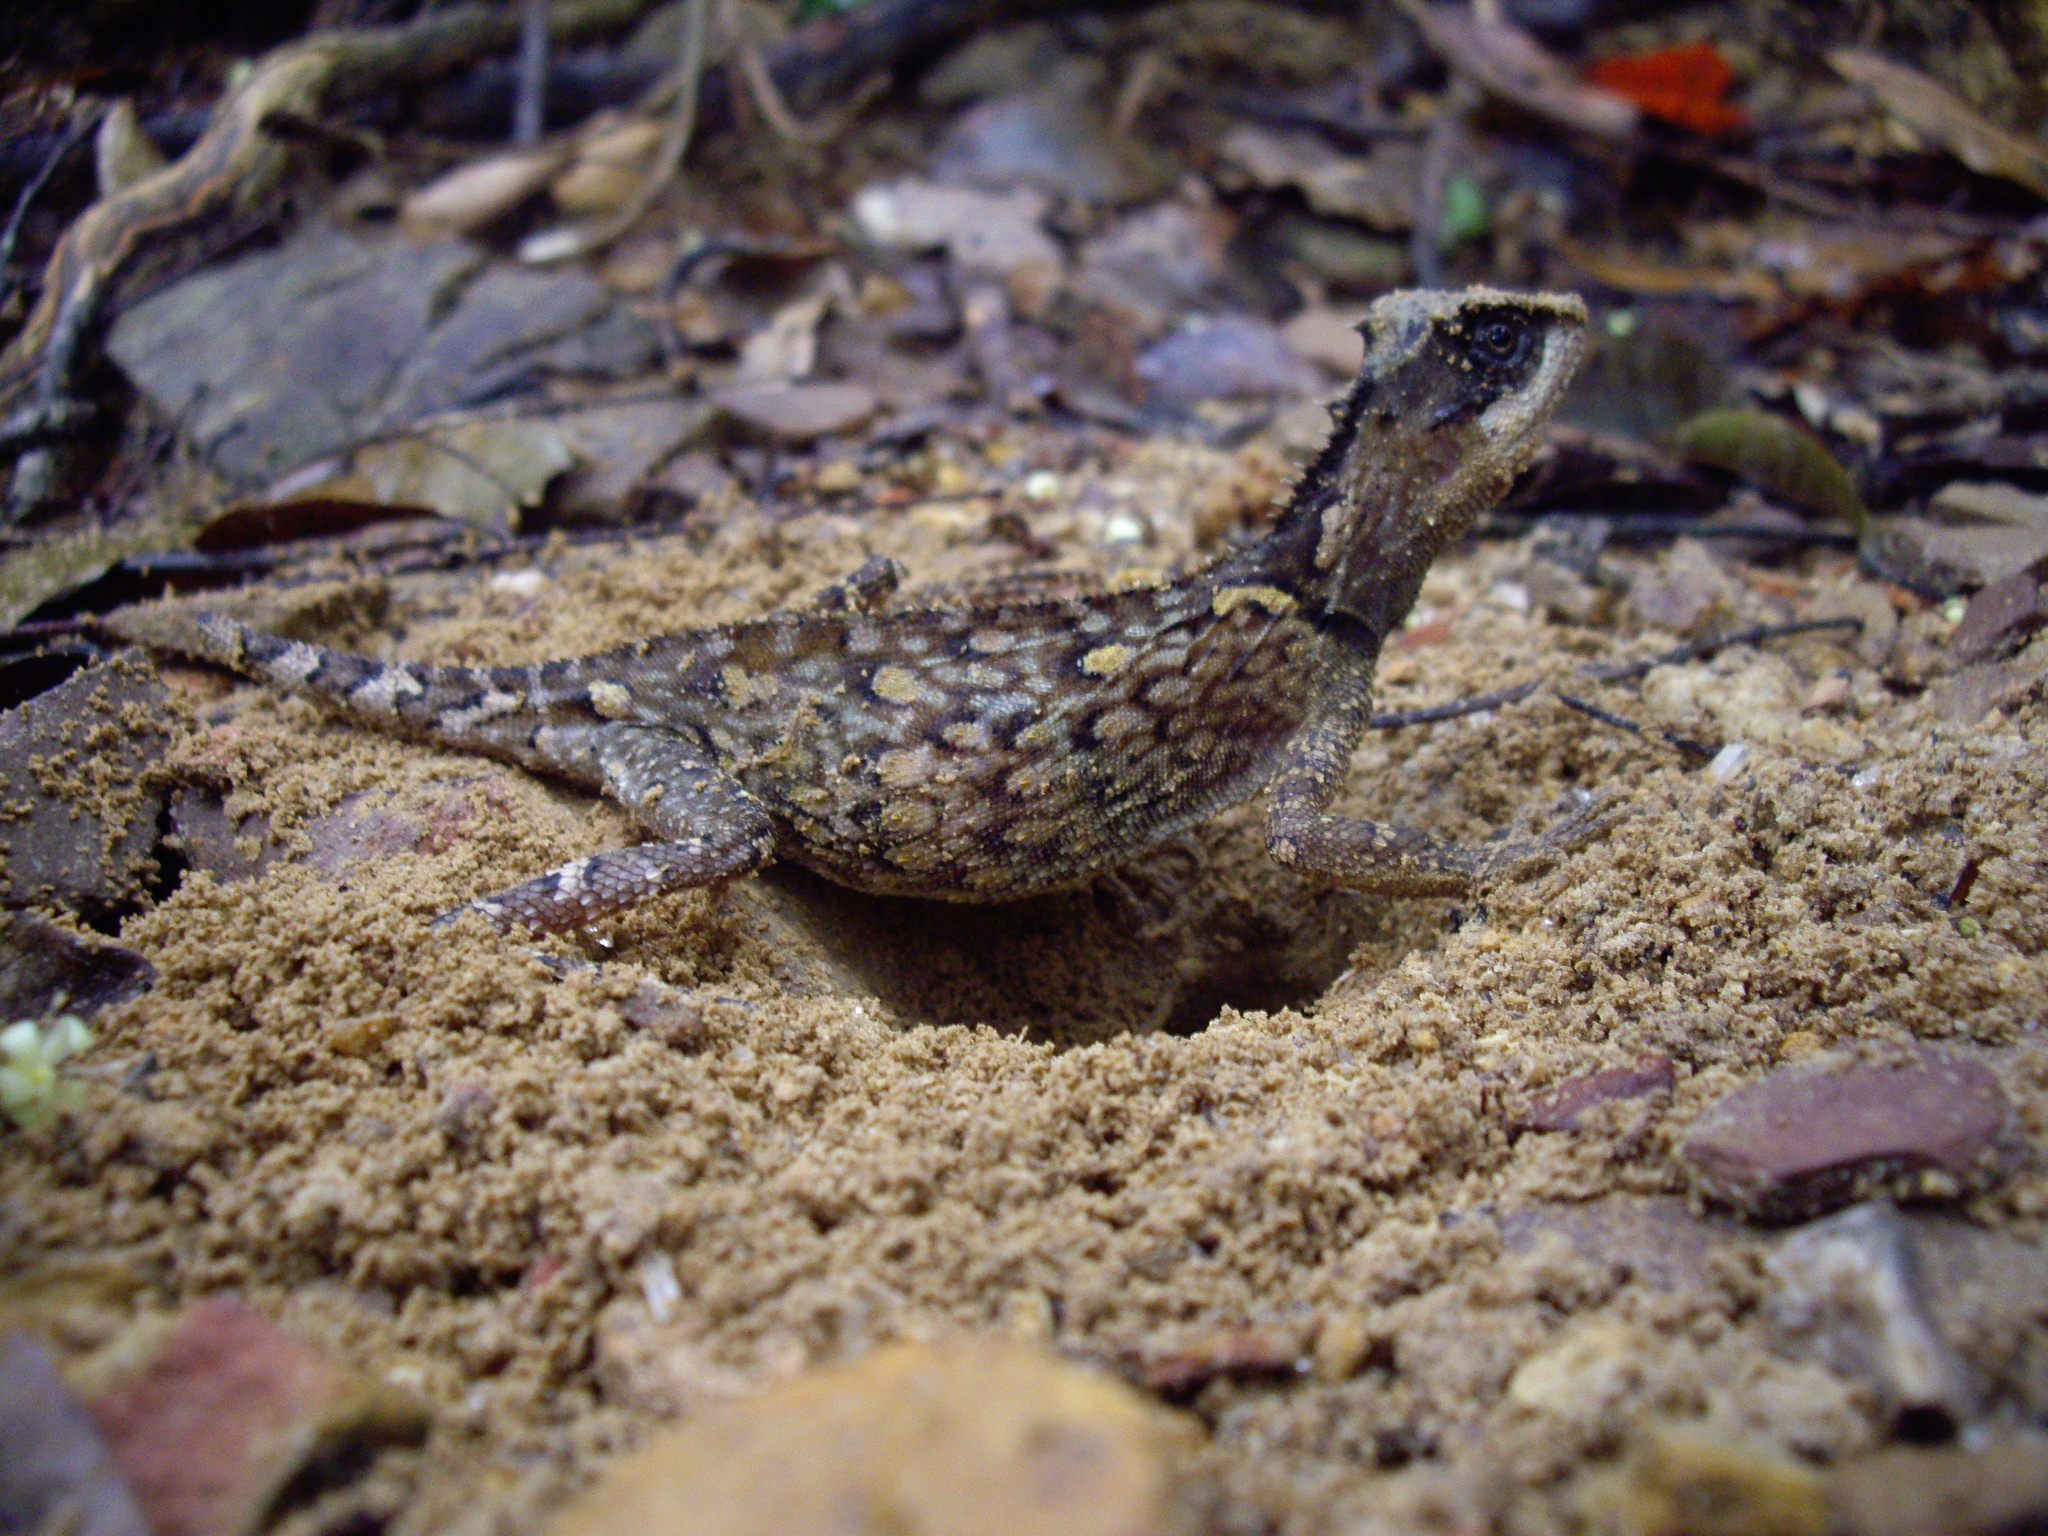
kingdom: Animalia
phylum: Chordata
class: Squamata
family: Agamidae
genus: Acanthosaura
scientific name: Acanthosaura
